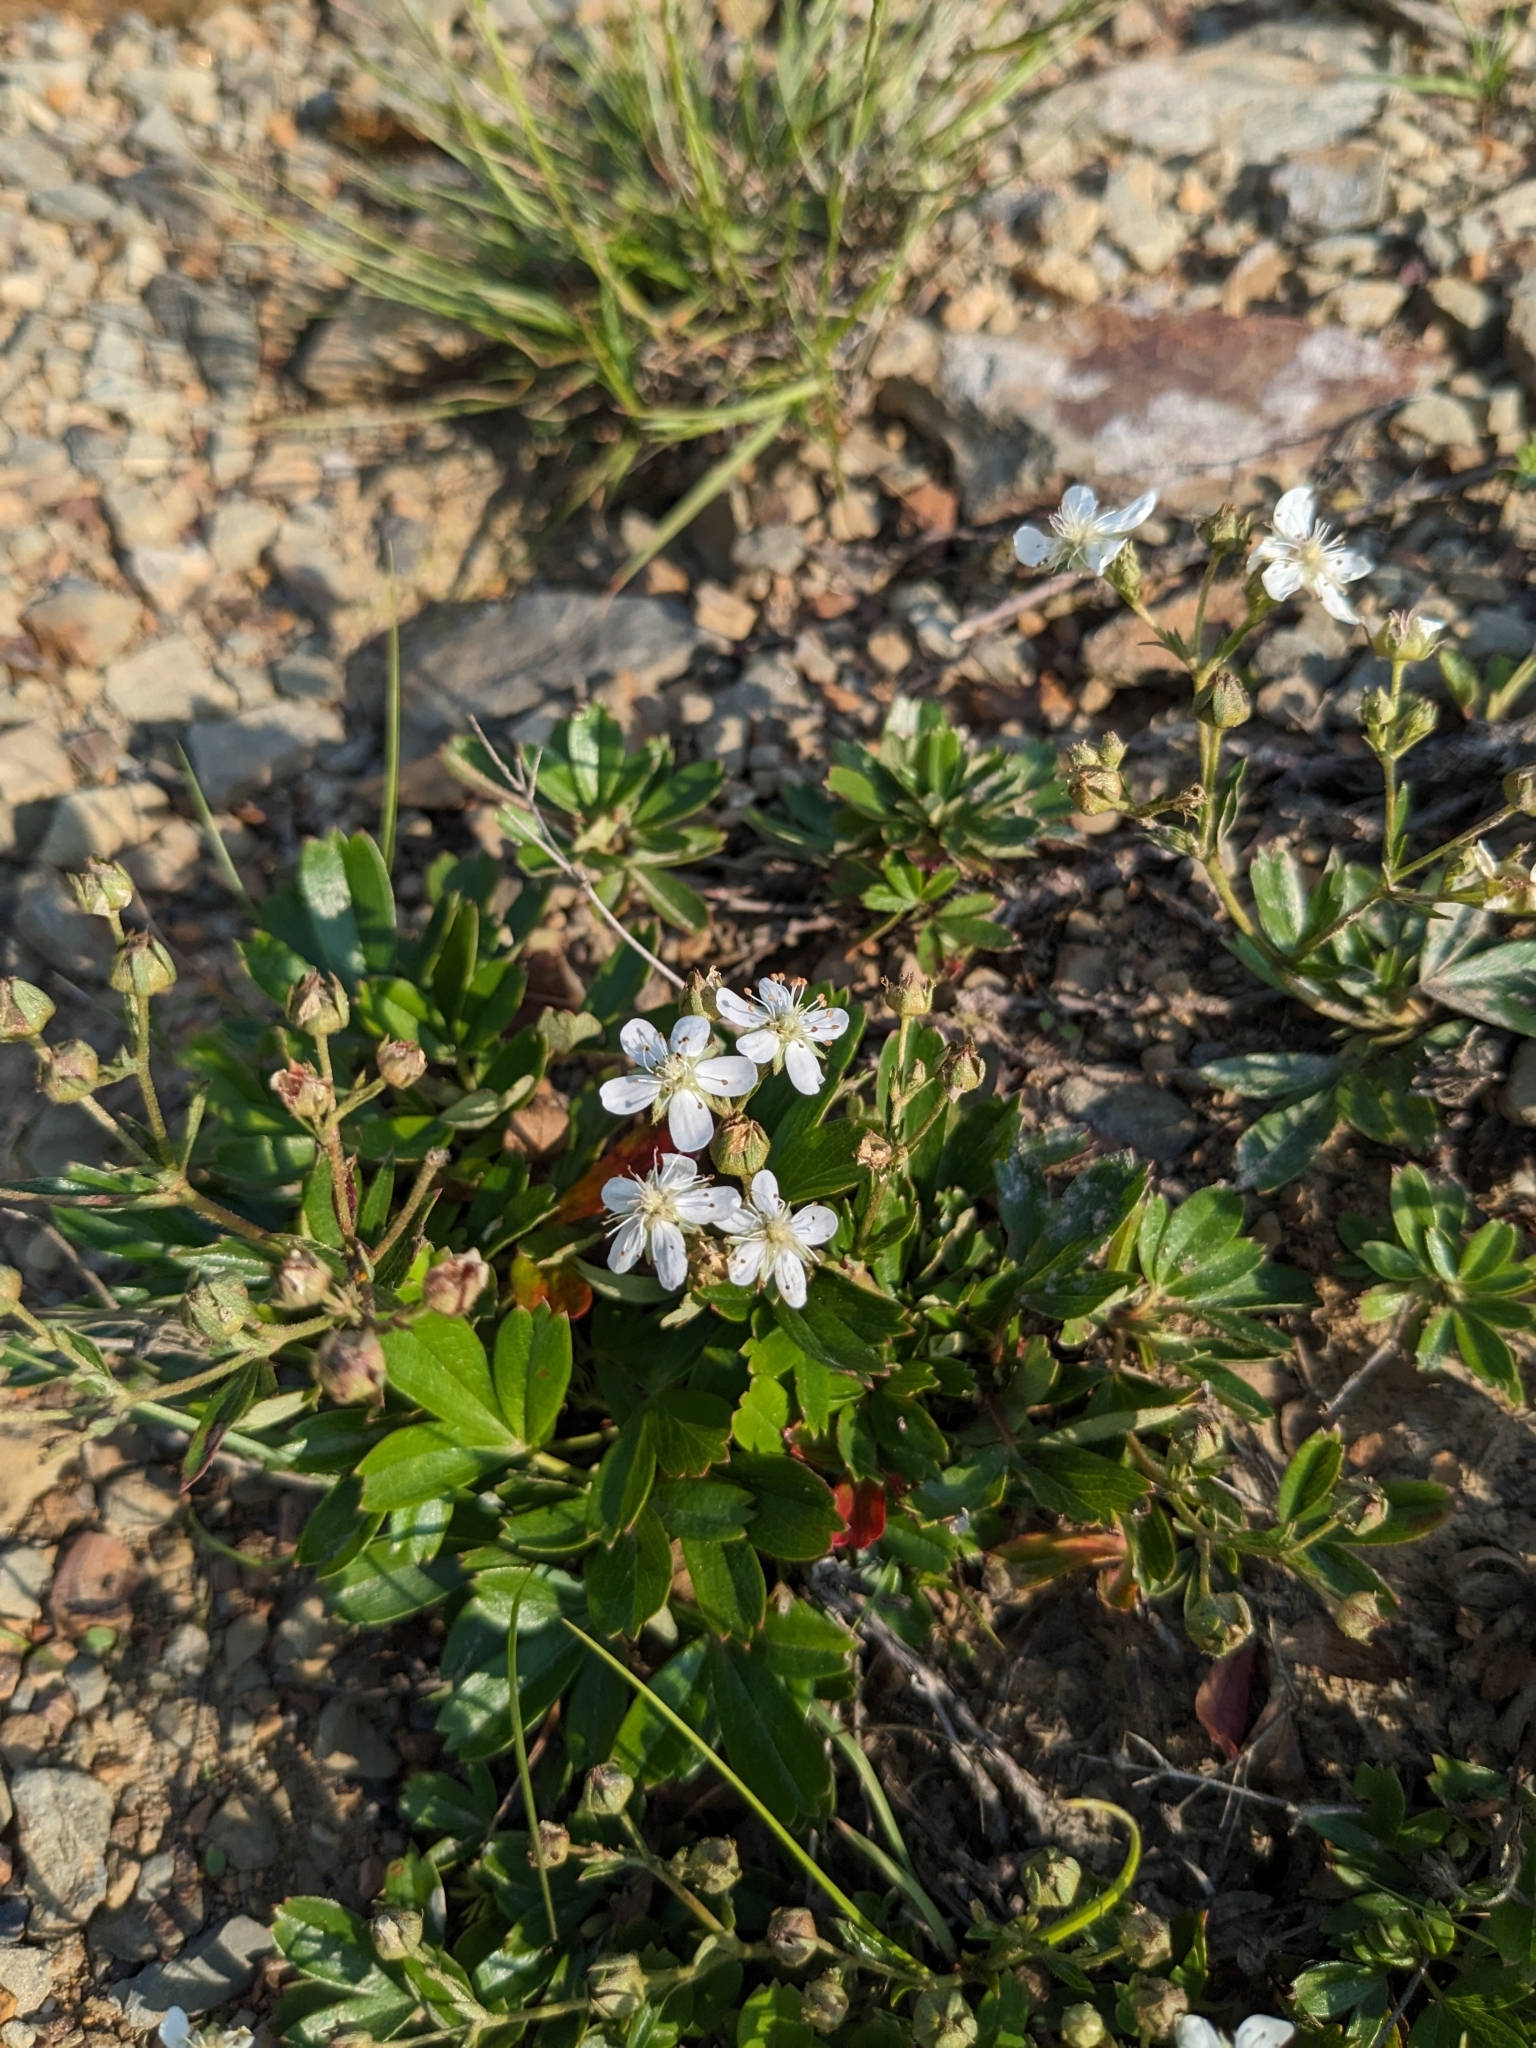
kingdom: Plantae
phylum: Tracheophyta
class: Magnoliopsida
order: Rosales
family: Rosaceae
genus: Sibbaldia
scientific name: Sibbaldia tridentata
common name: Three-toothed cinquefoil
